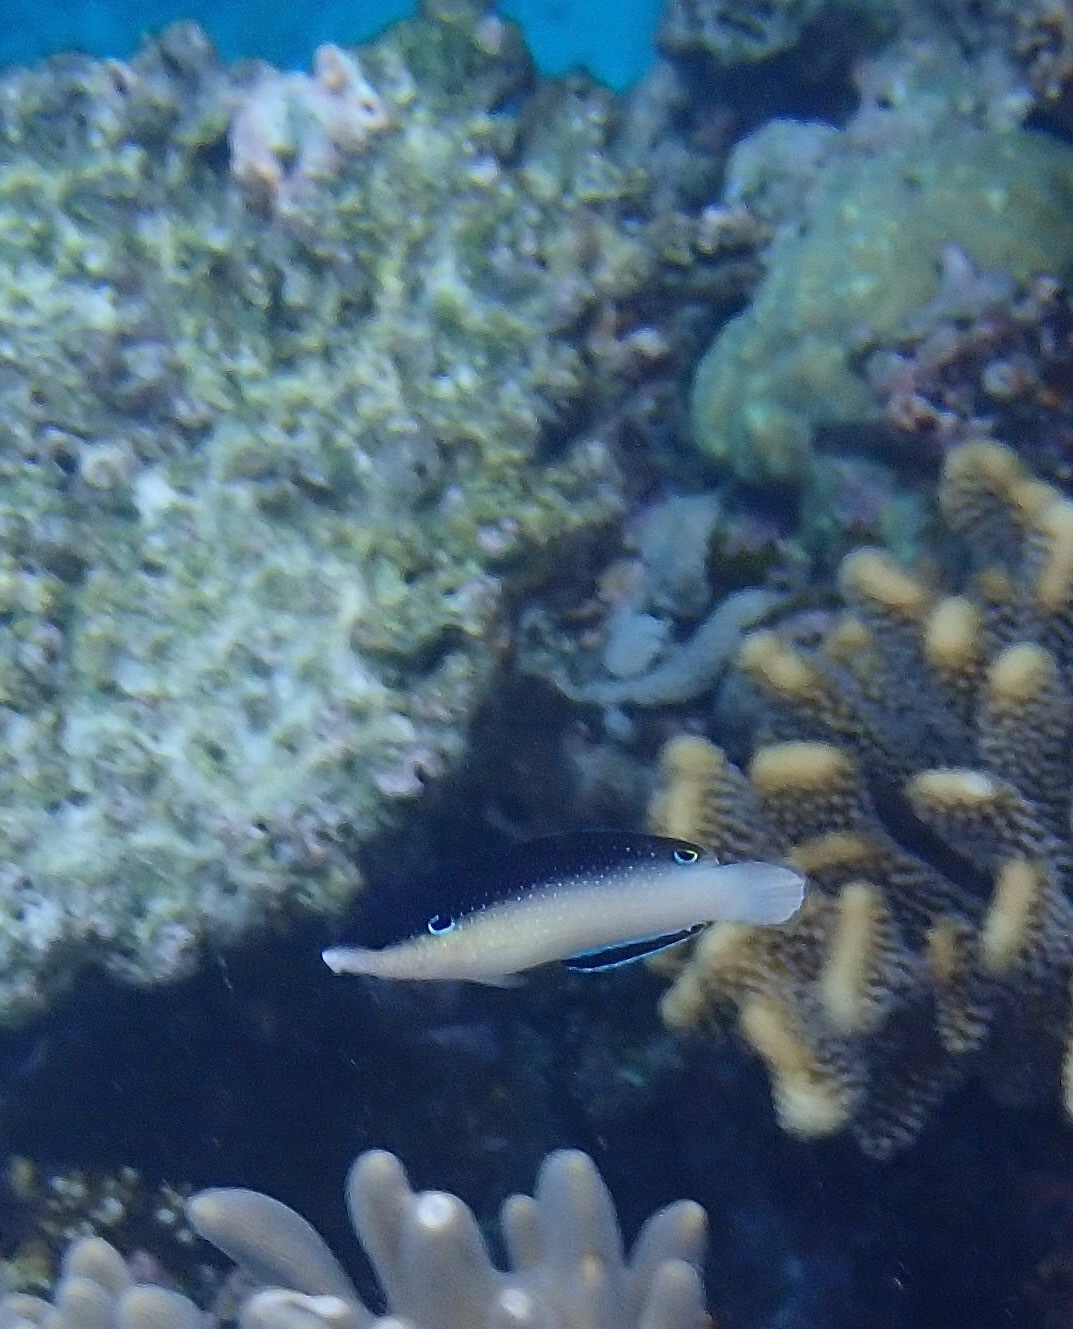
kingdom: Animalia
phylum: Chordata
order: Perciformes
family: Labridae
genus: Anampses
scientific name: Anampses neoguinaicus
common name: New guinea wrasse
